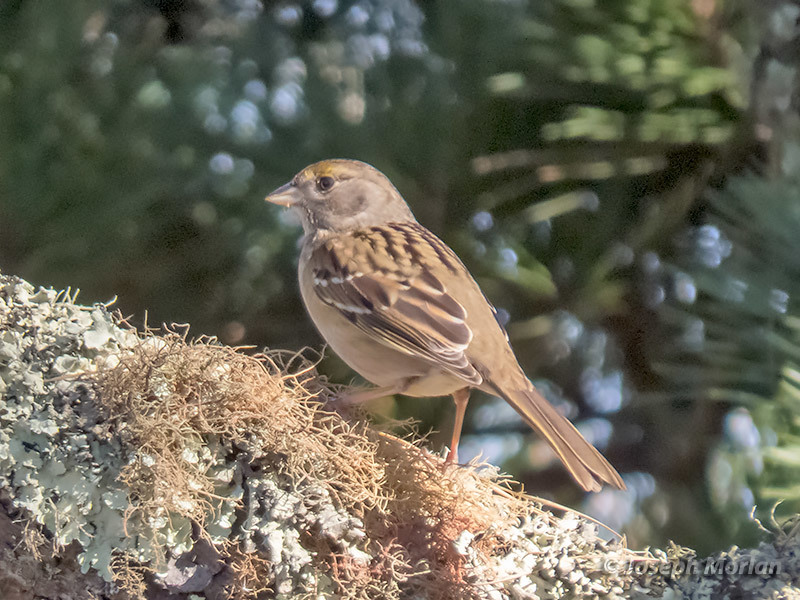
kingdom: Animalia
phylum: Chordata
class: Aves
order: Passeriformes
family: Passerellidae
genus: Zonotrichia
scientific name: Zonotrichia atricapilla
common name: Golden-crowned sparrow
